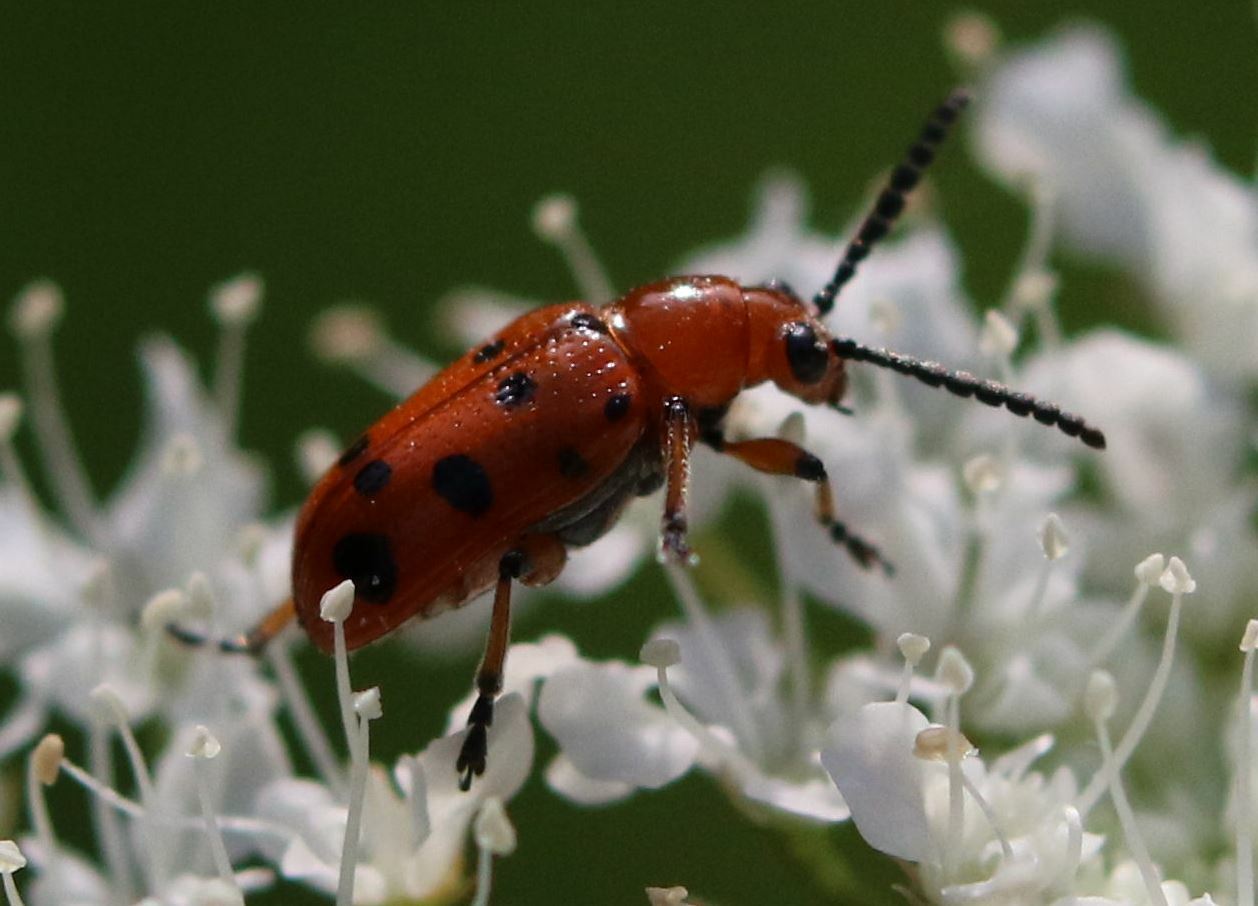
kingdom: Animalia
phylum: Arthropoda
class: Insecta
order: Coleoptera
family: Chrysomelidae
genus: Crioceris
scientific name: Crioceris duodecimpunctata
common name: Twelve-spotted asparagus beetle
